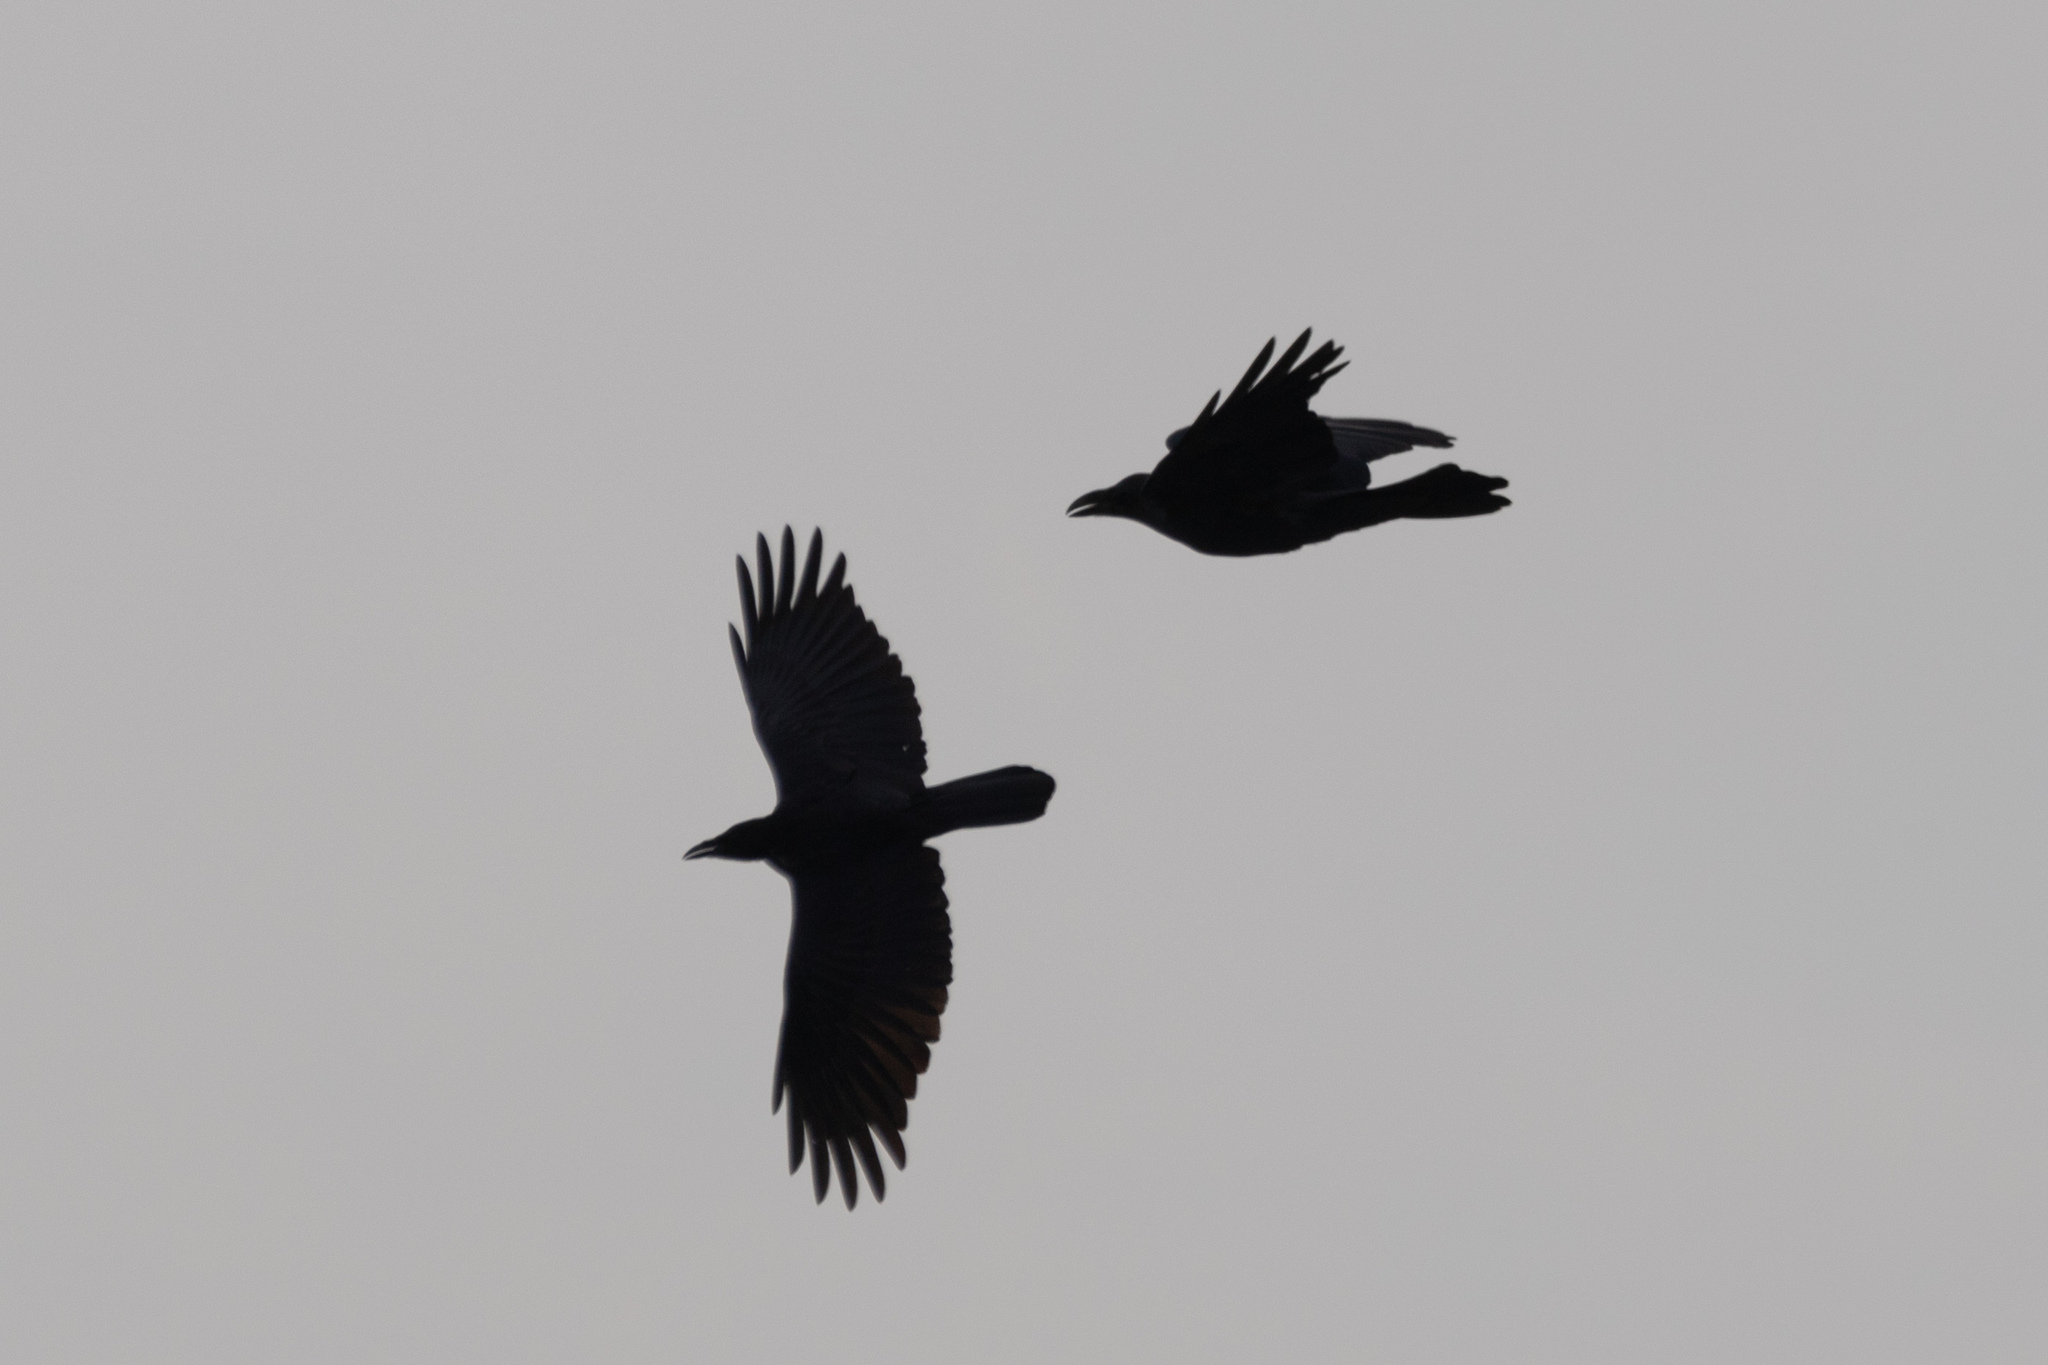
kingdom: Animalia
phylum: Chordata
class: Aves
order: Passeriformes
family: Corvidae
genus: Corvus
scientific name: Corvus macrorhynchos
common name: Large-billed crow
